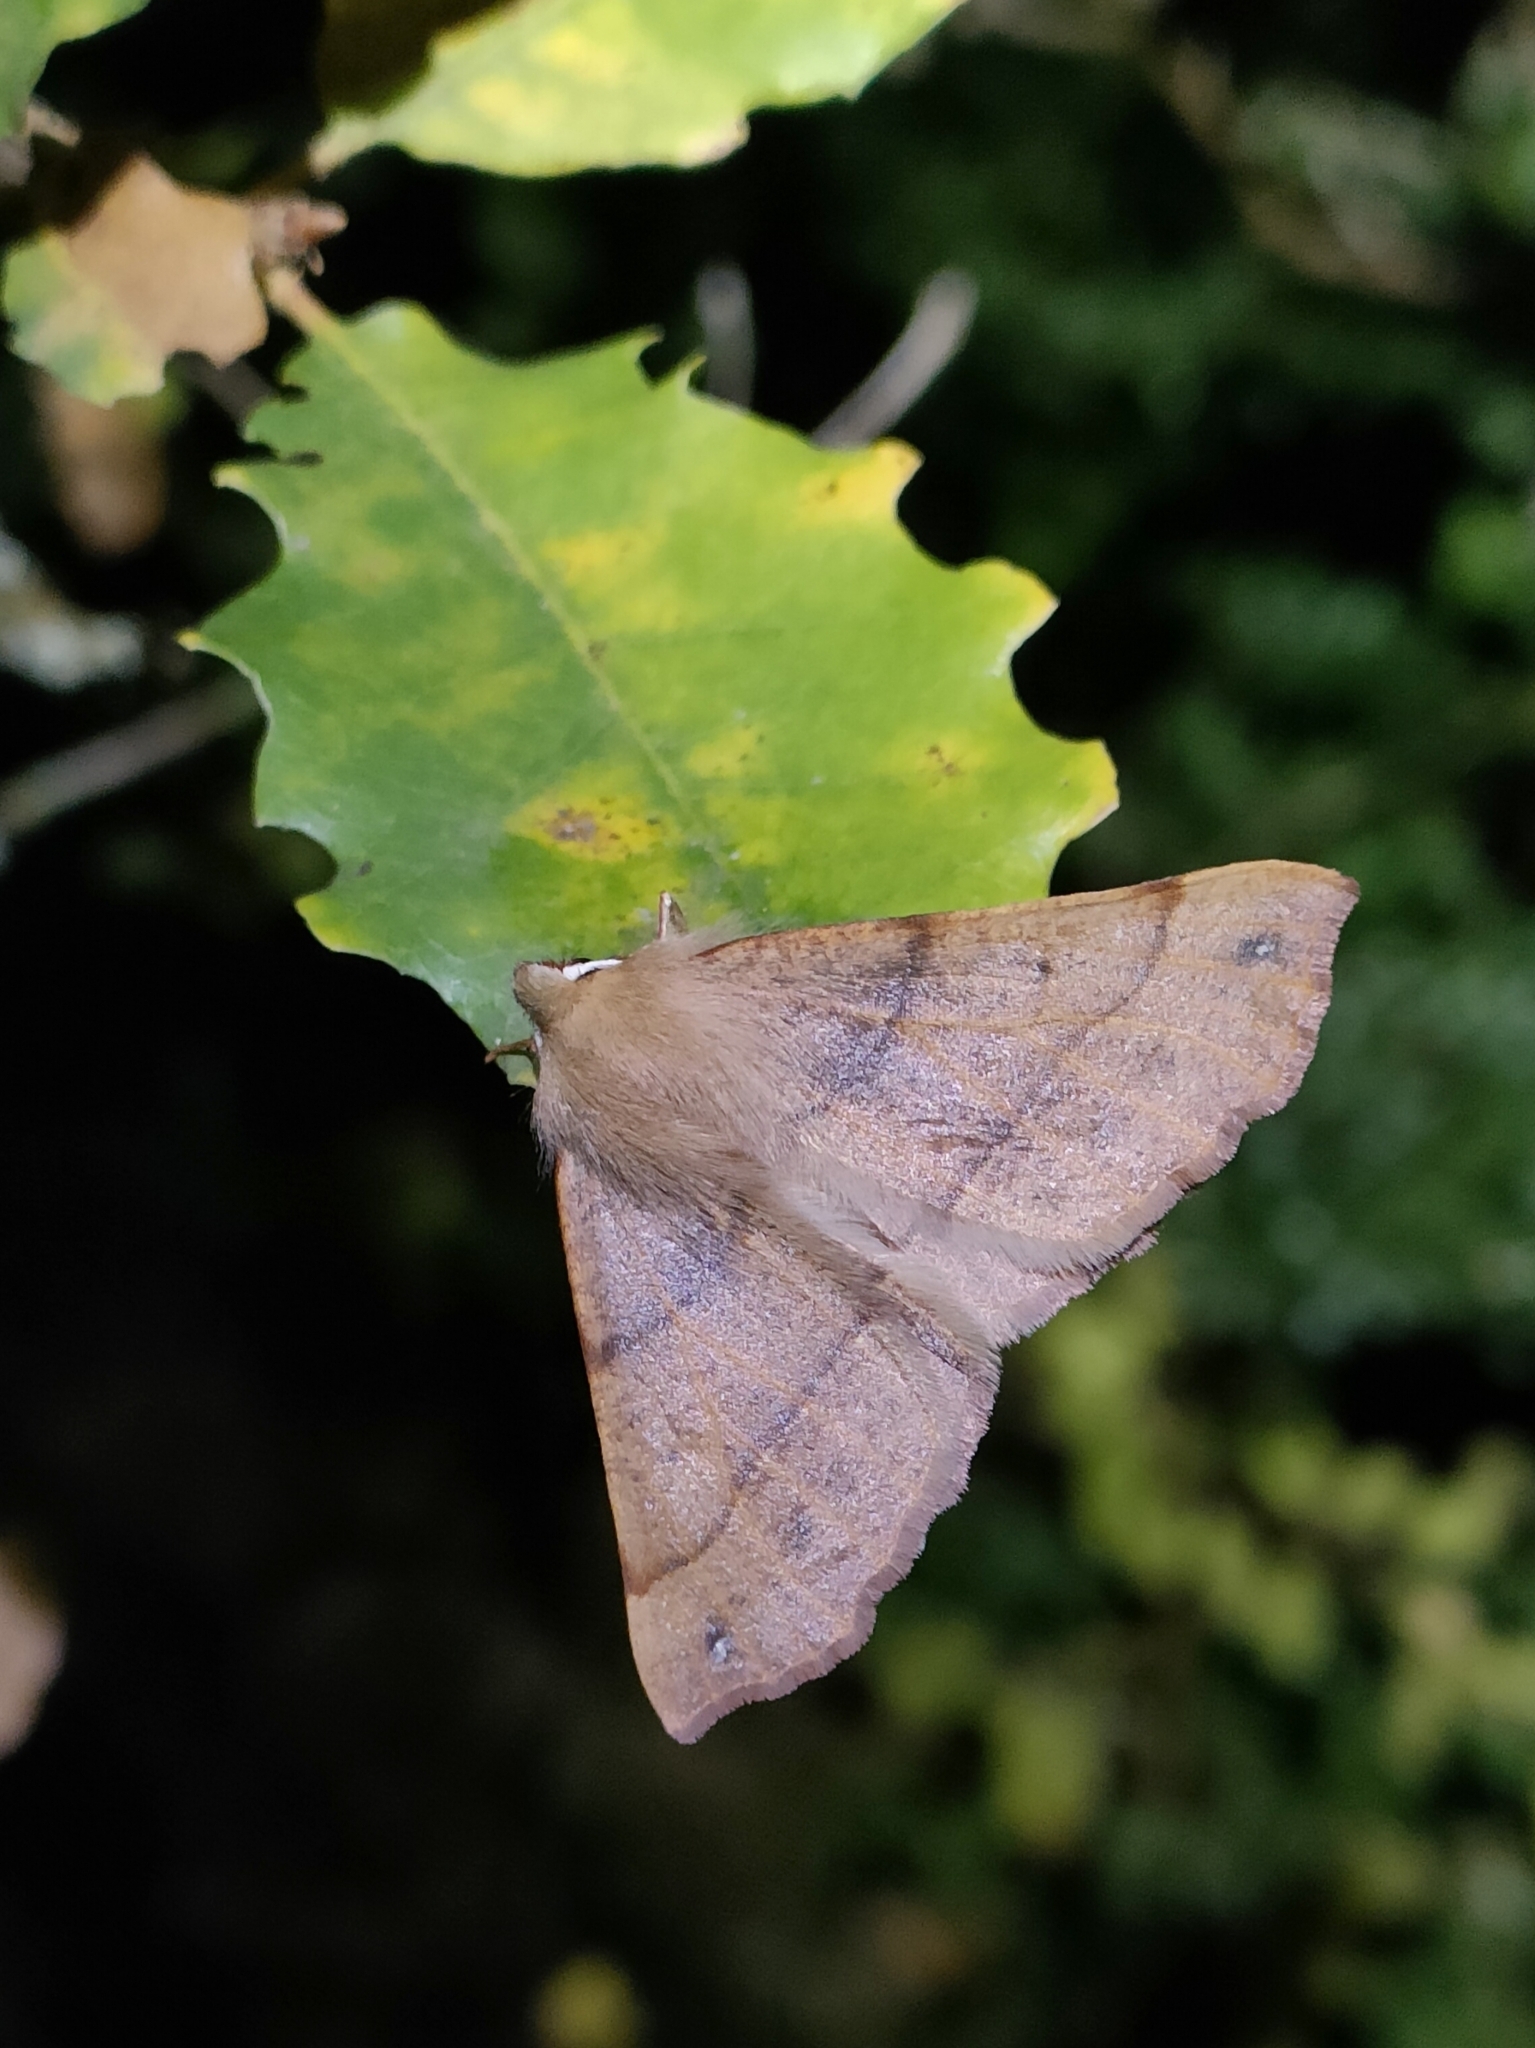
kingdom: Animalia
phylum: Arthropoda
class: Insecta
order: Lepidoptera
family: Geometridae
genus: Colotois
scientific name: Colotois pennaria
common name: Feathered thorn
